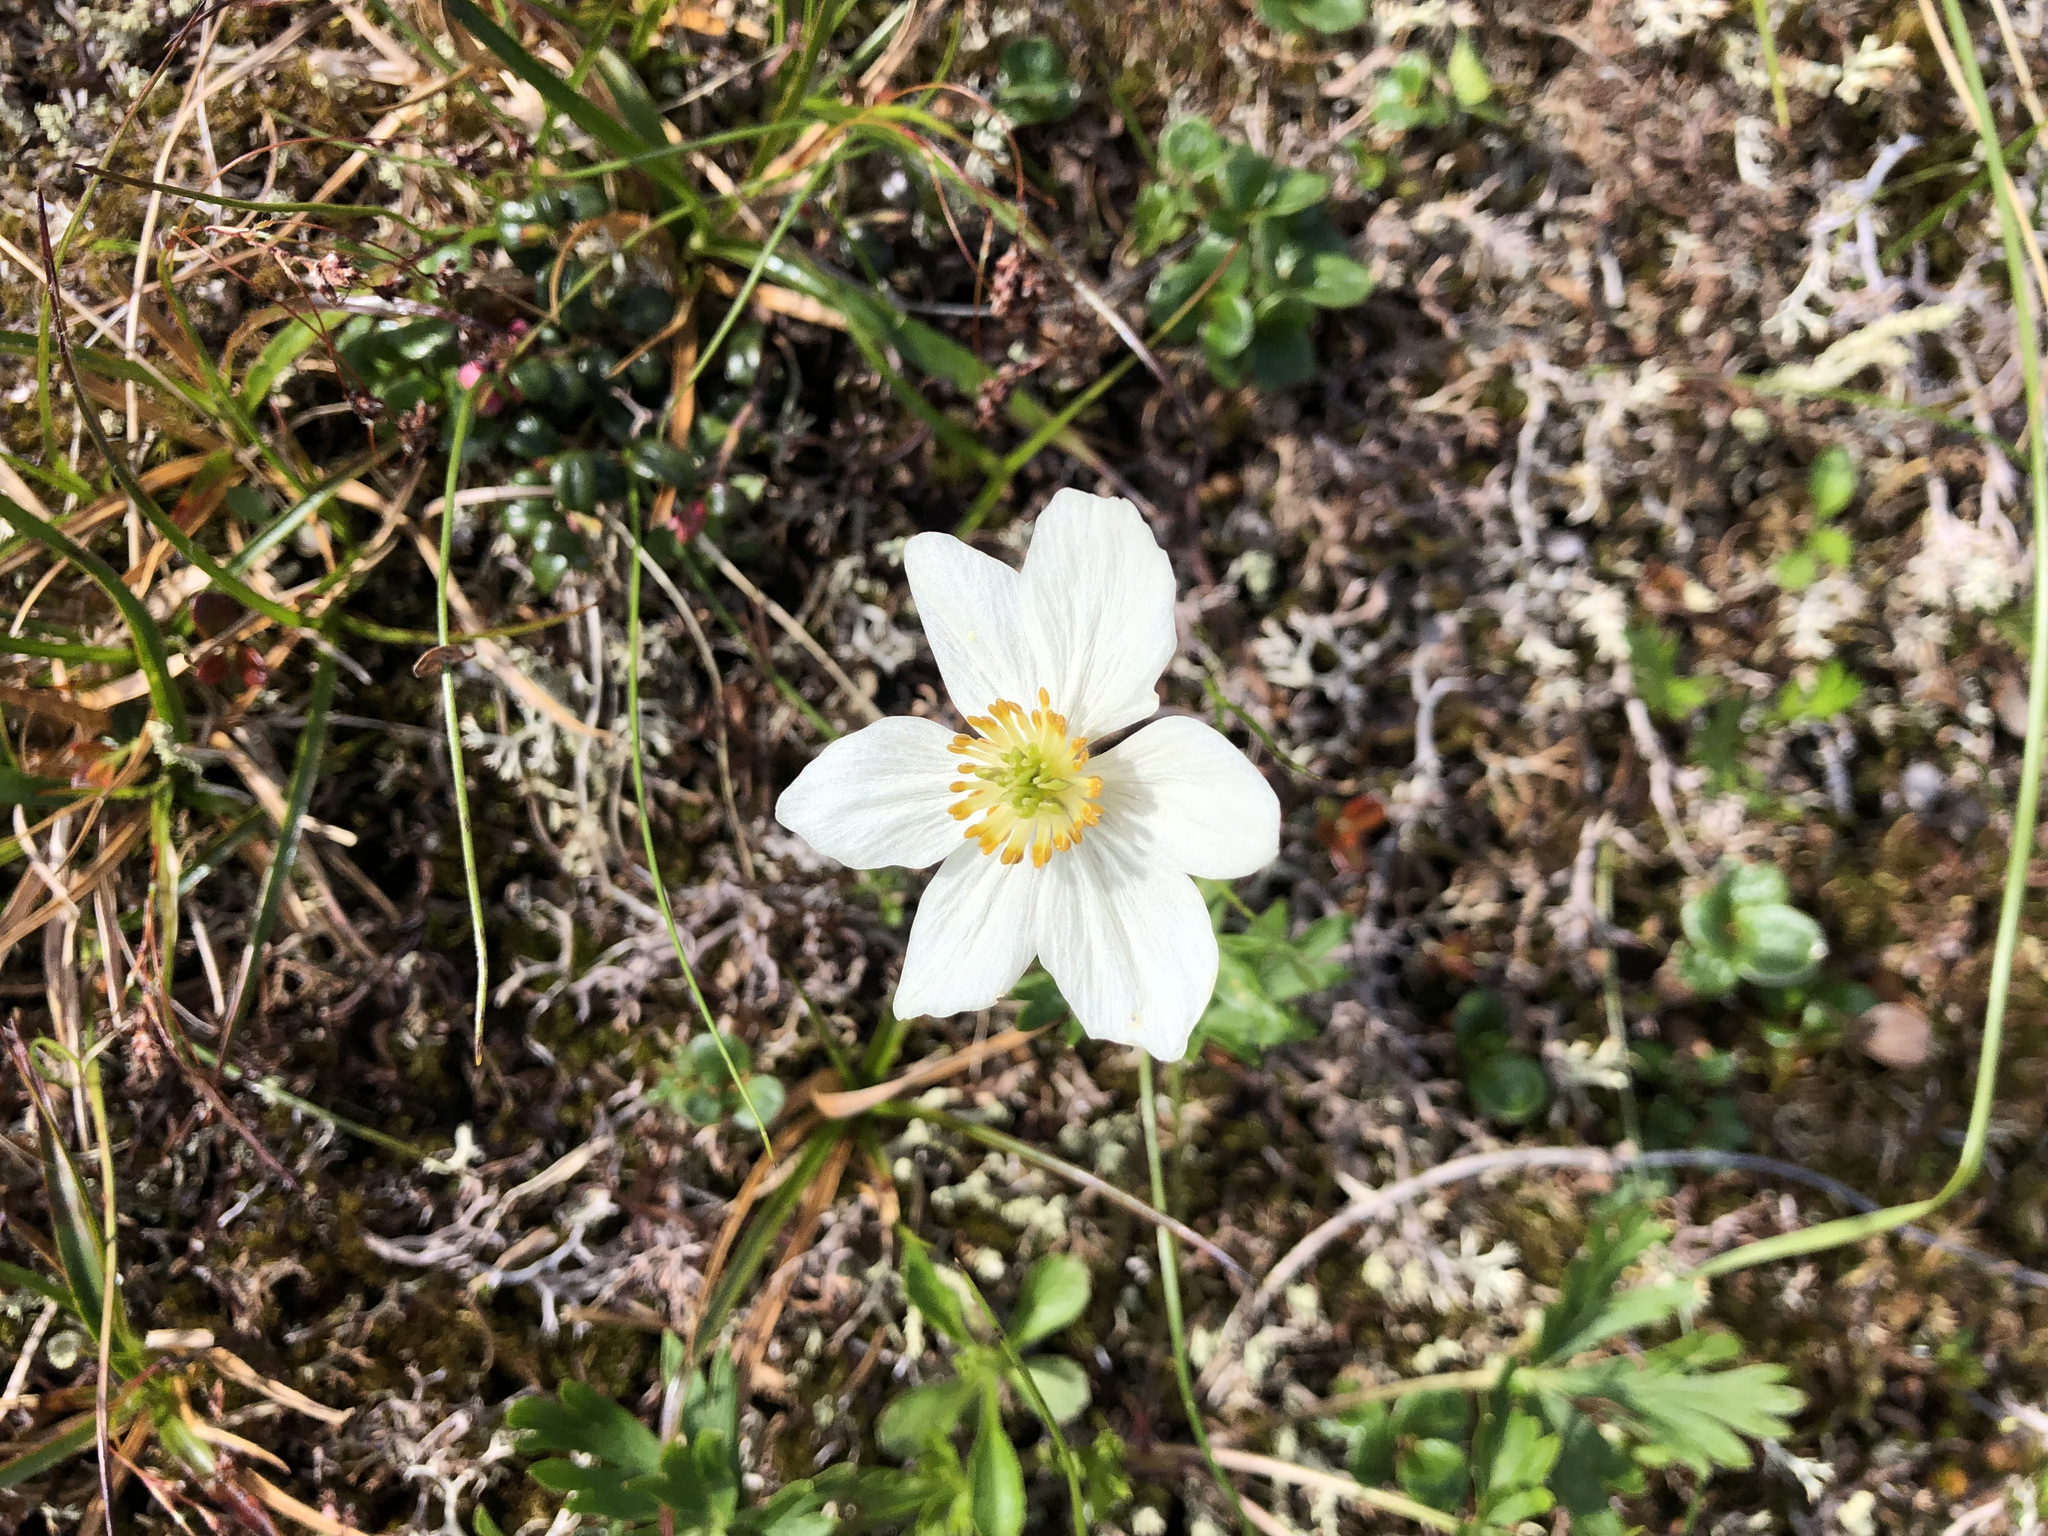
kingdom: Plantae
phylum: Tracheophyta
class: Magnoliopsida
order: Ranunculales
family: Ranunculaceae
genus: Anemonastrum
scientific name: Anemonastrum narcissiflorum
